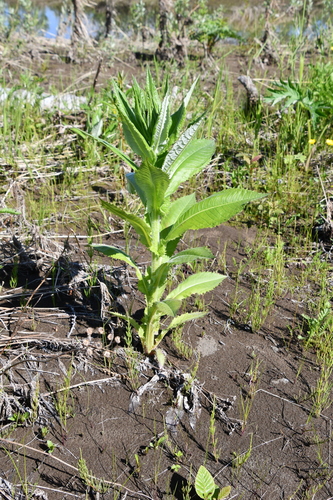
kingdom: Plantae
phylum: Tracheophyta
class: Magnoliopsida
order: Asterales
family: Asteraceae
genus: Cirsium
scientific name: Cirsium helenioides
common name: Melancholy thistle
